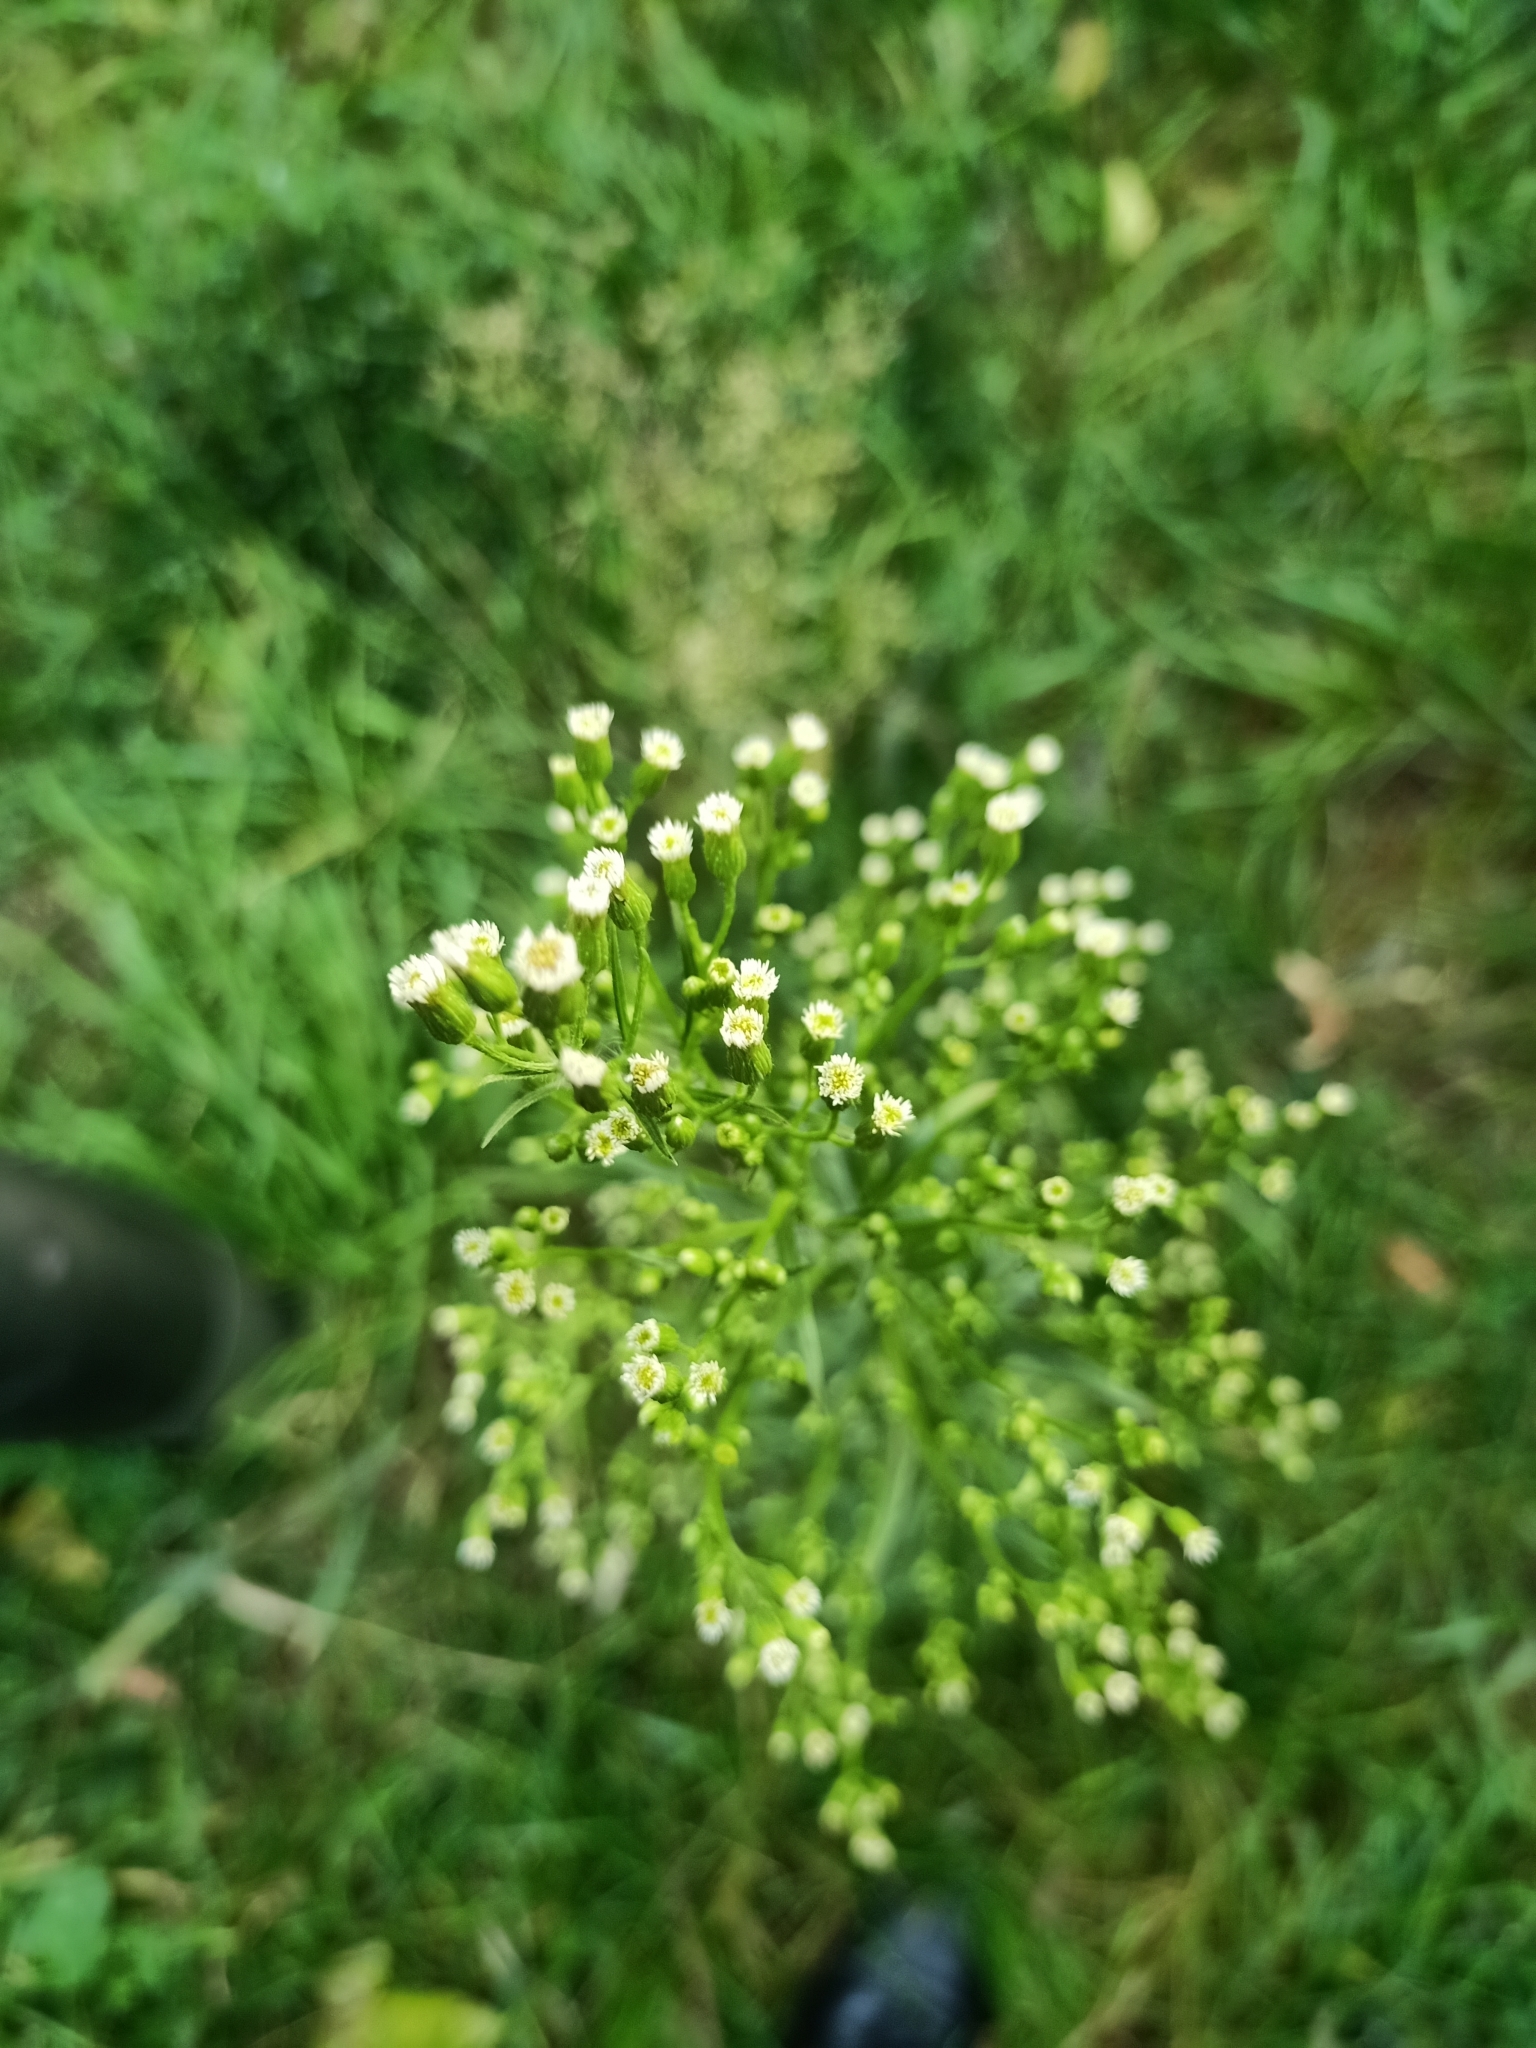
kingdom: Plantae
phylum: Tracheophyta
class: Magnoliopsida
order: Asterales
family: Asteraceae
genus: Erigeron
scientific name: Erigeron canadensis
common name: Canadian fleabane
